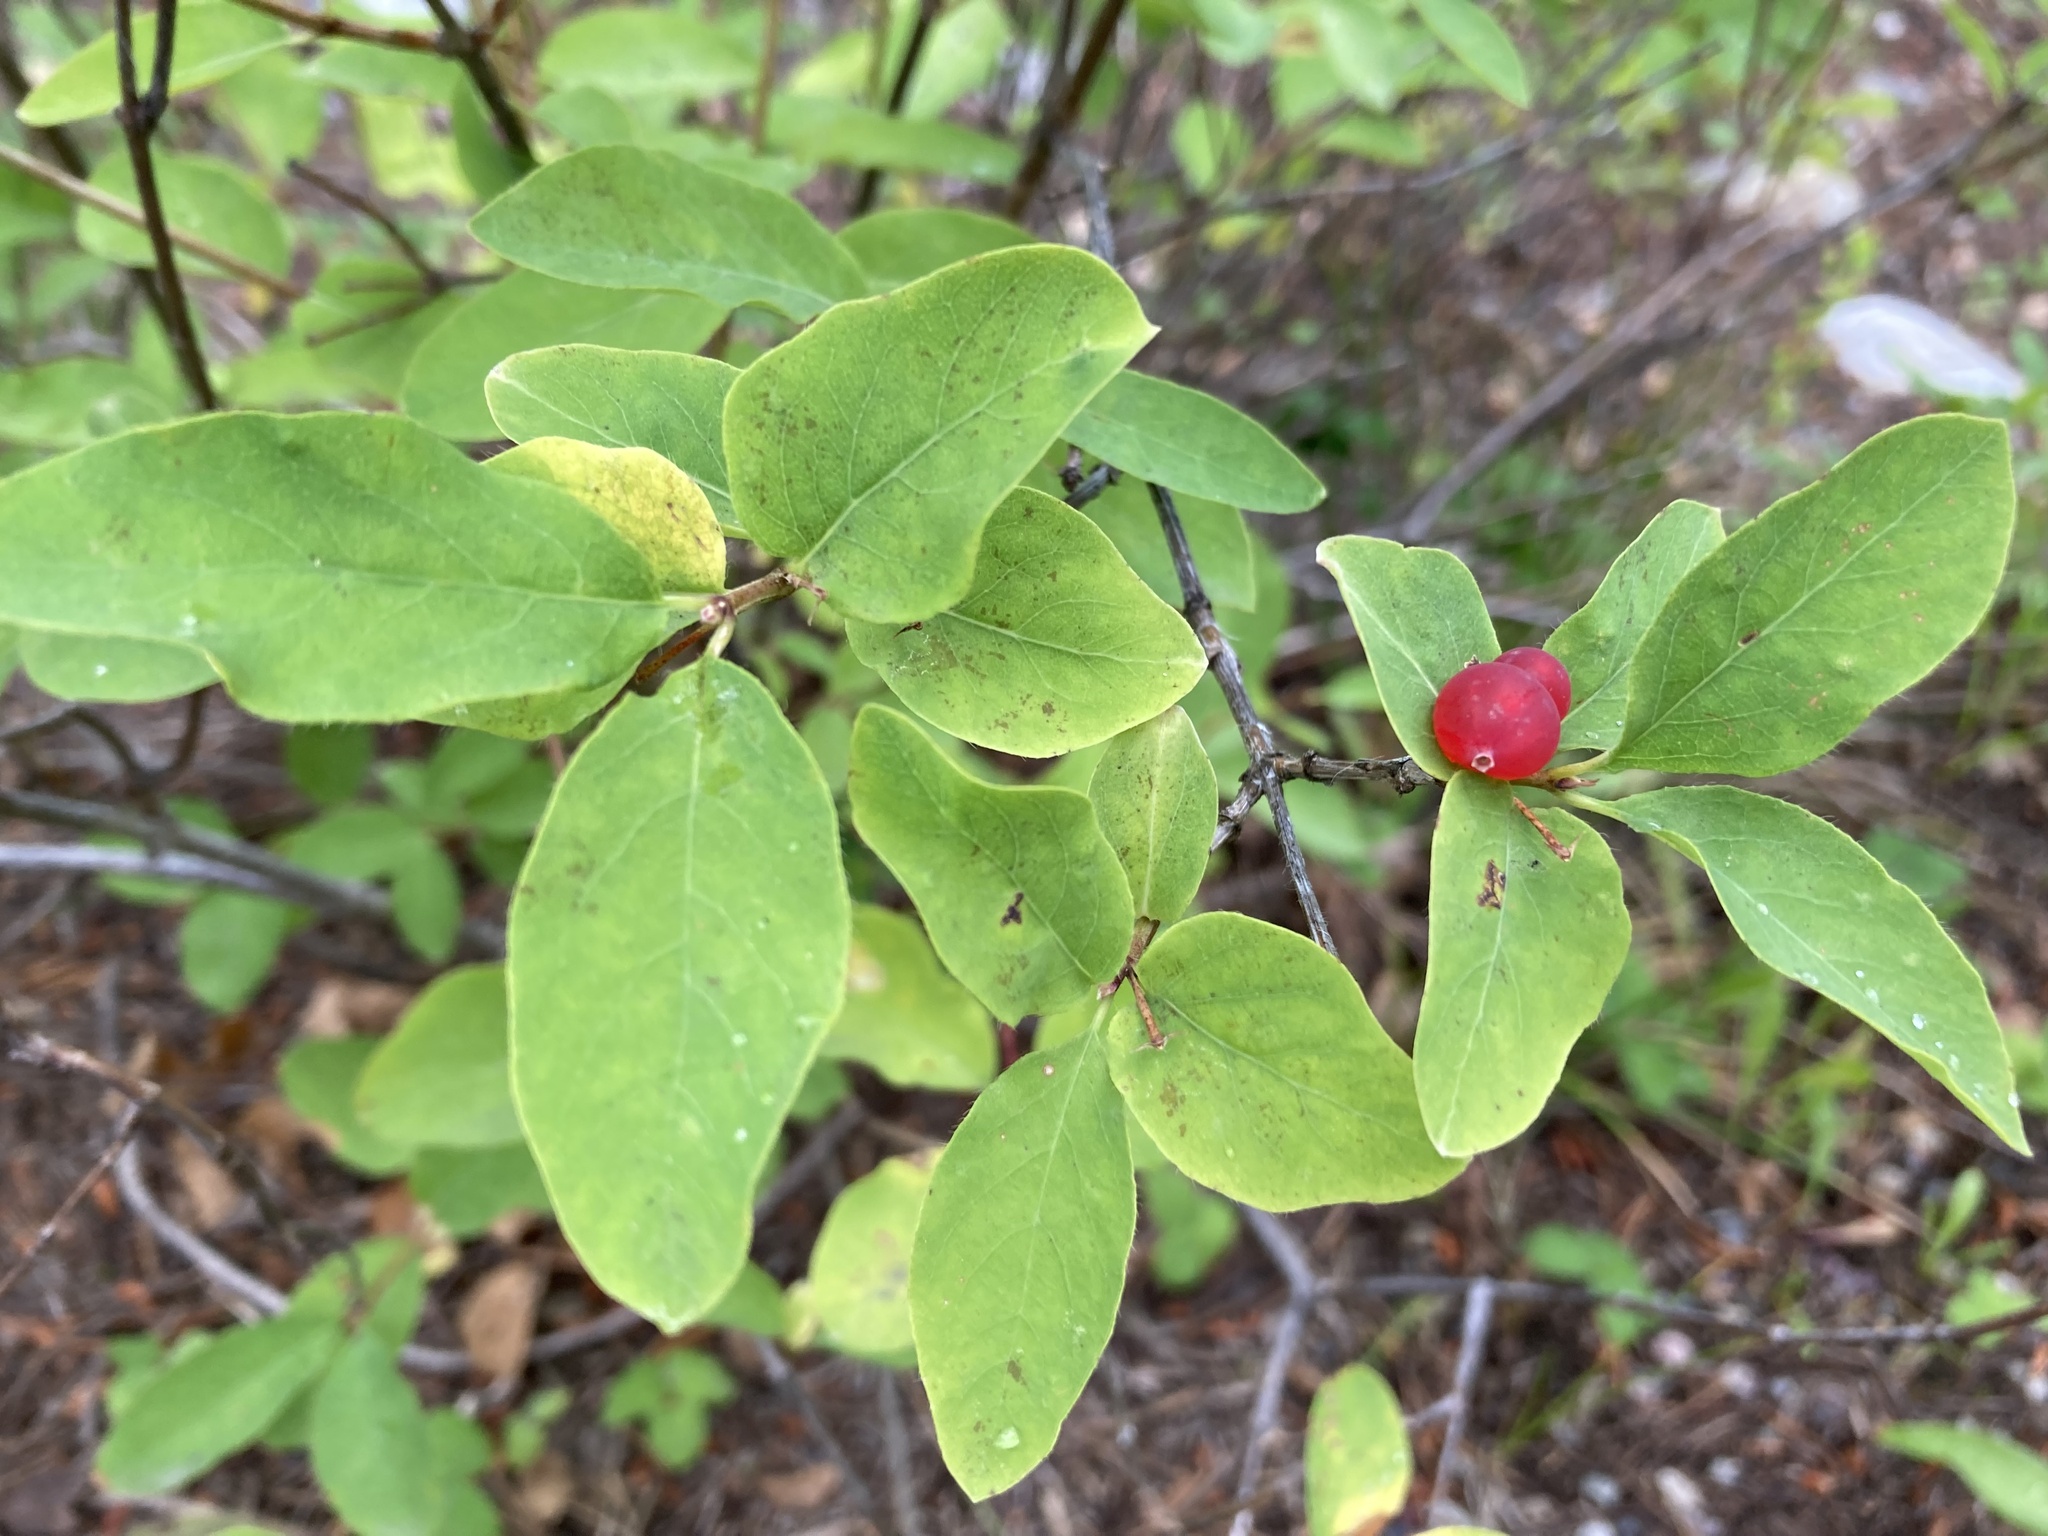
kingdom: Plantae
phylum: Tracheophyta
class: Magnoliopsida
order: Dipsacales
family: Caprifoliaceae
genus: Lonicera
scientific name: Lonicera utahensis
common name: Utah honeysuckle
